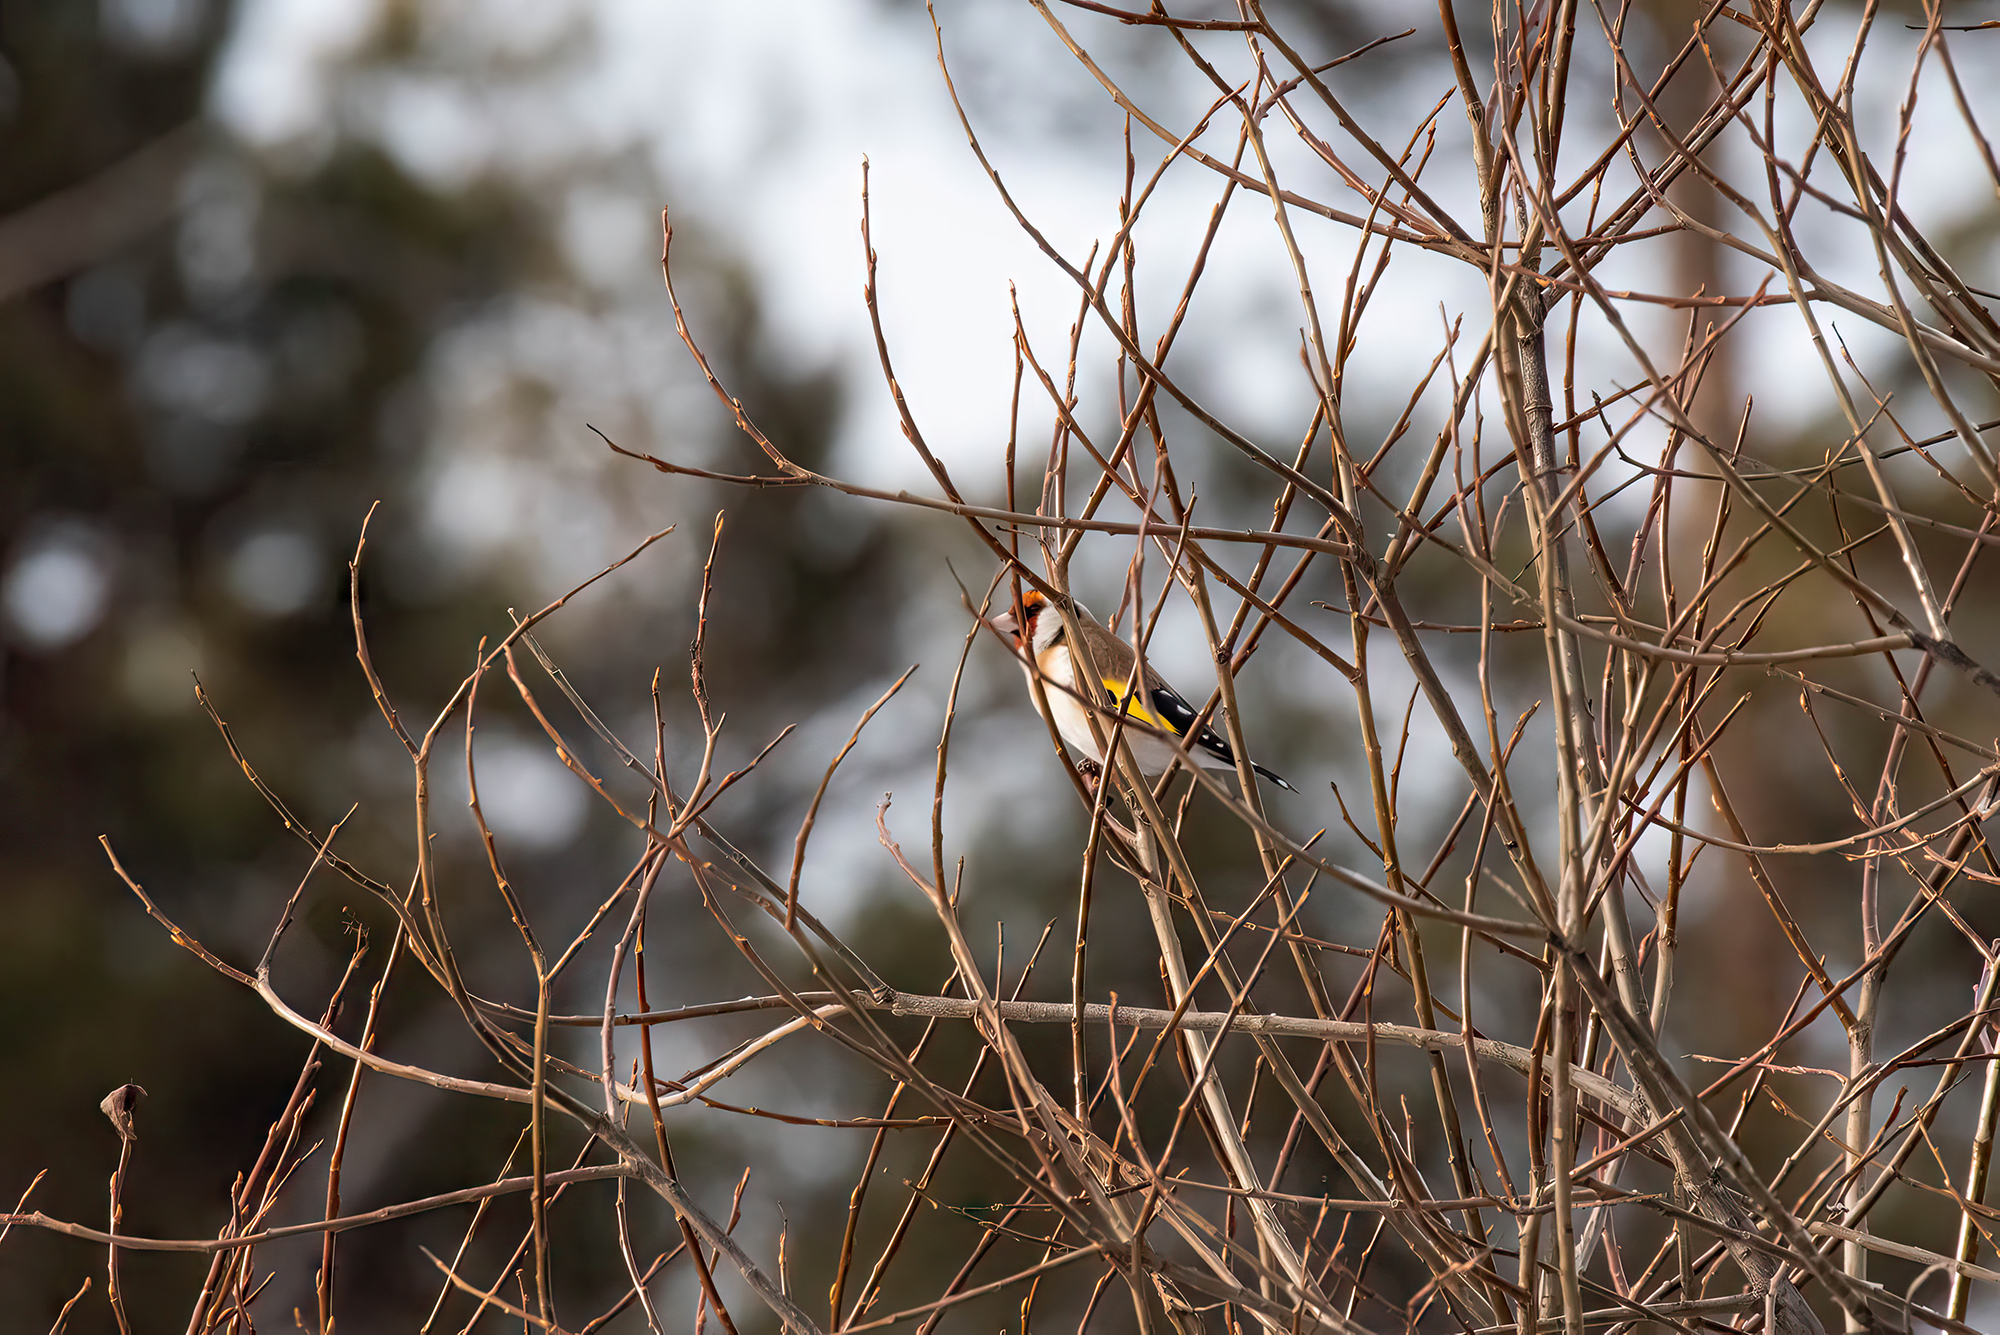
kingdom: Animalia
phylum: Chordata
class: Aves
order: Passeriformes
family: Fringillidae
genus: Carduelis
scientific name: Carduelis carduelis
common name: European goldfinch
